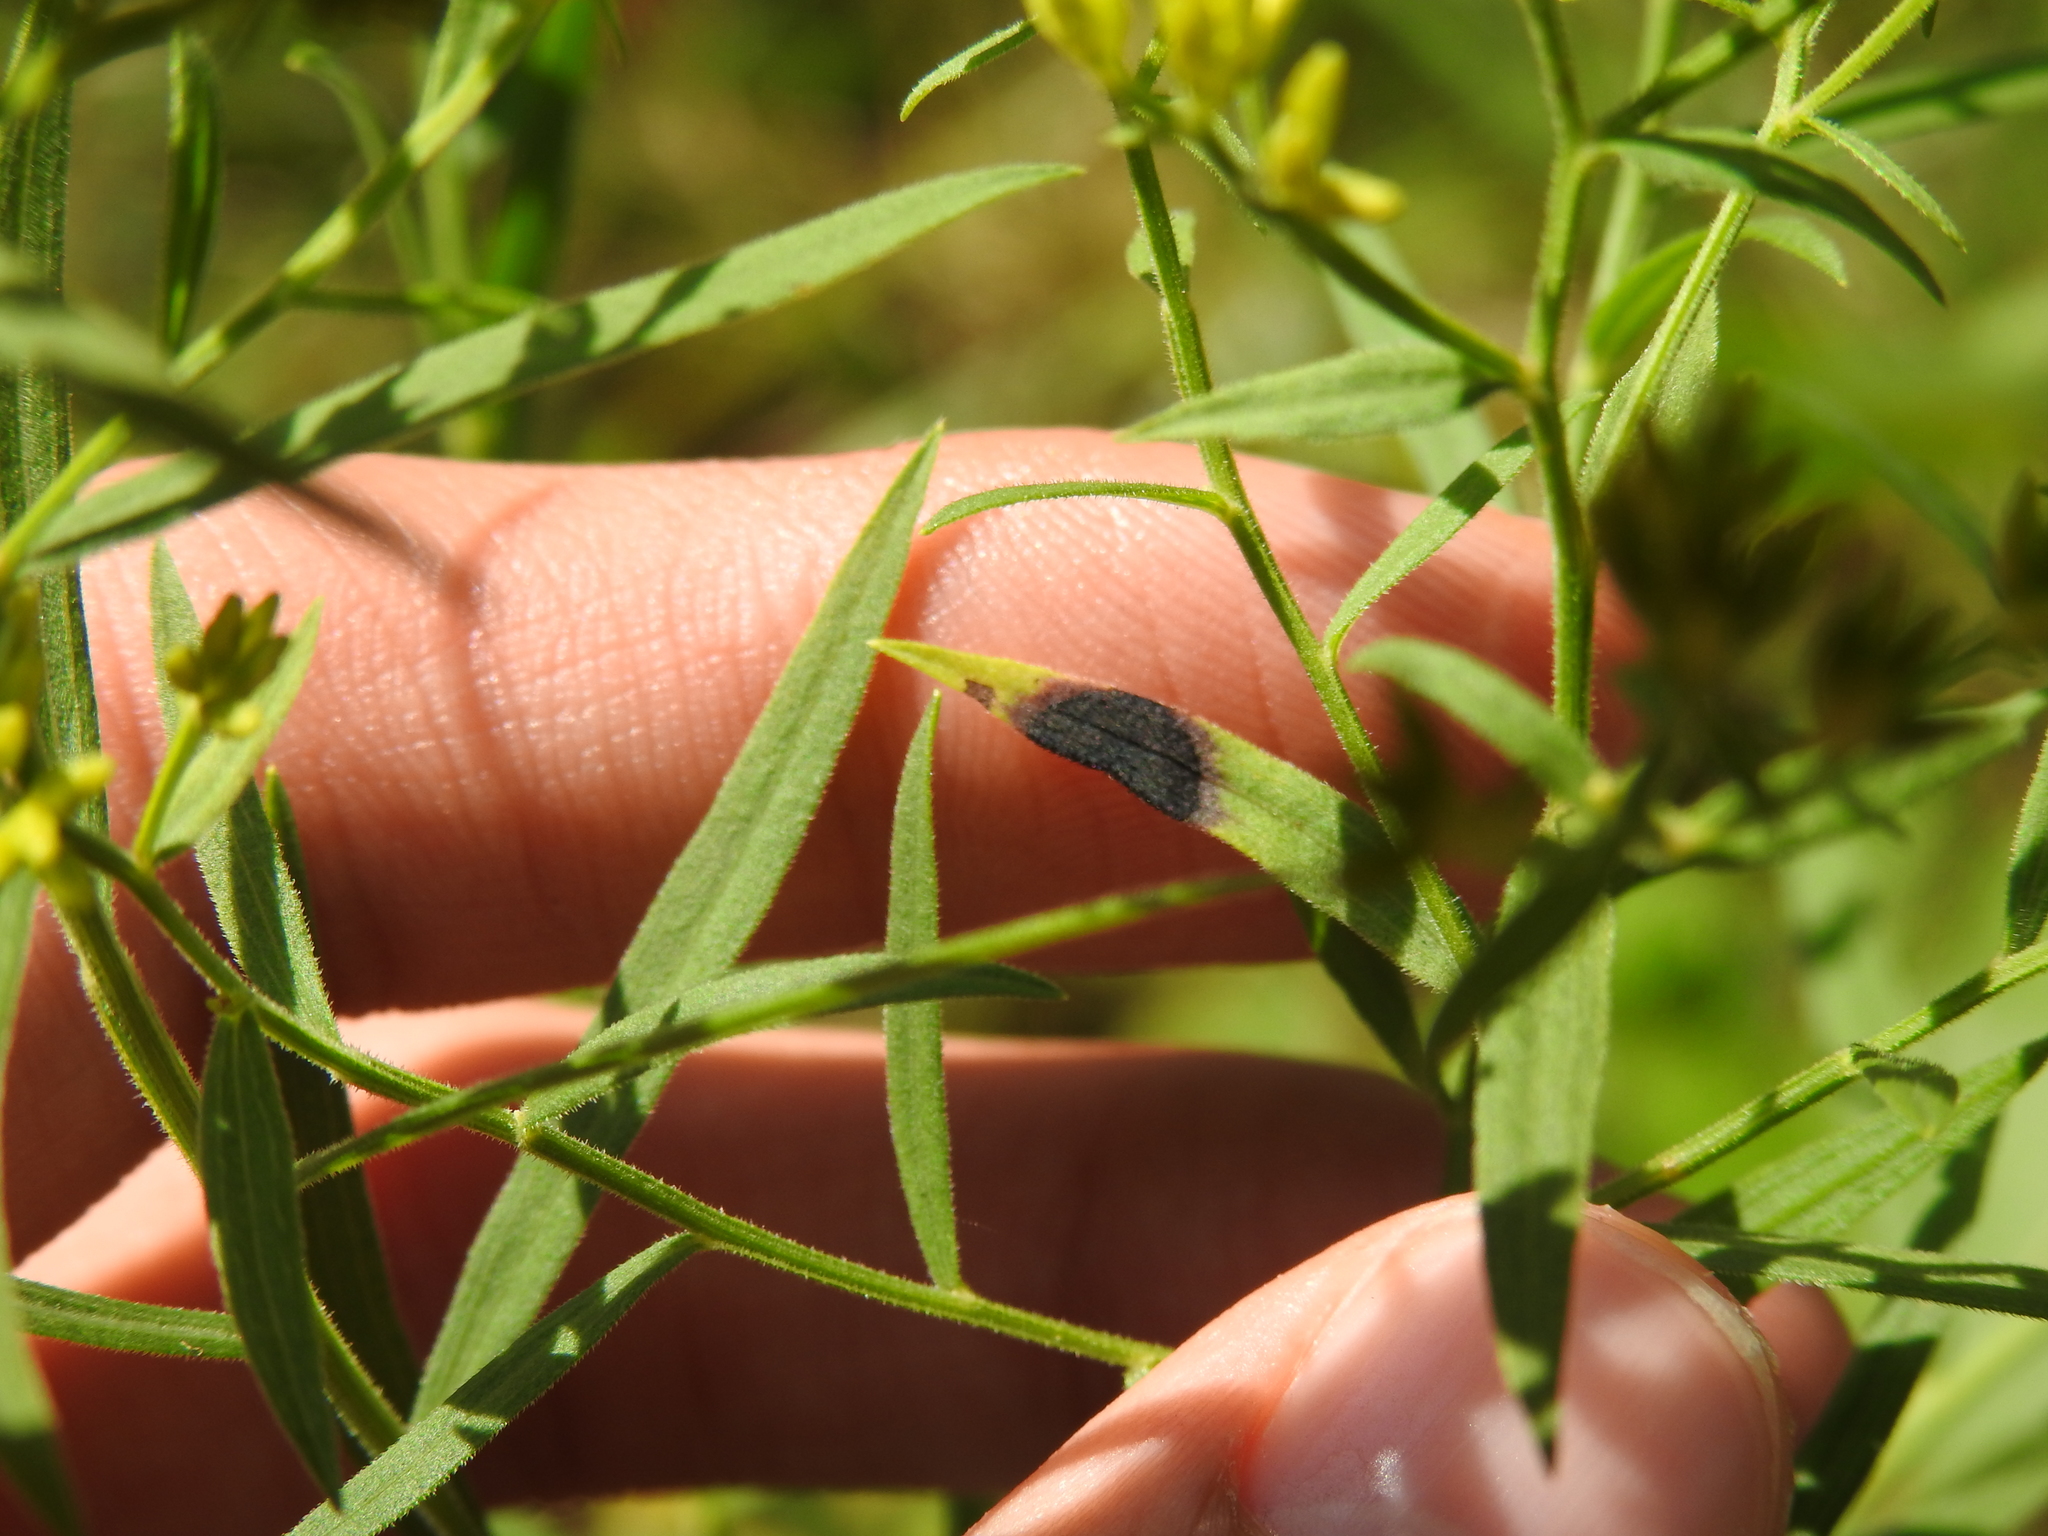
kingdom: Animalia
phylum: Arthropoda
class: Insecta
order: Diptera
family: Cecidomyiidae
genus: Asteromyia
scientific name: Asteromyia euthamiae
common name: Euthamia leaf gall midge
